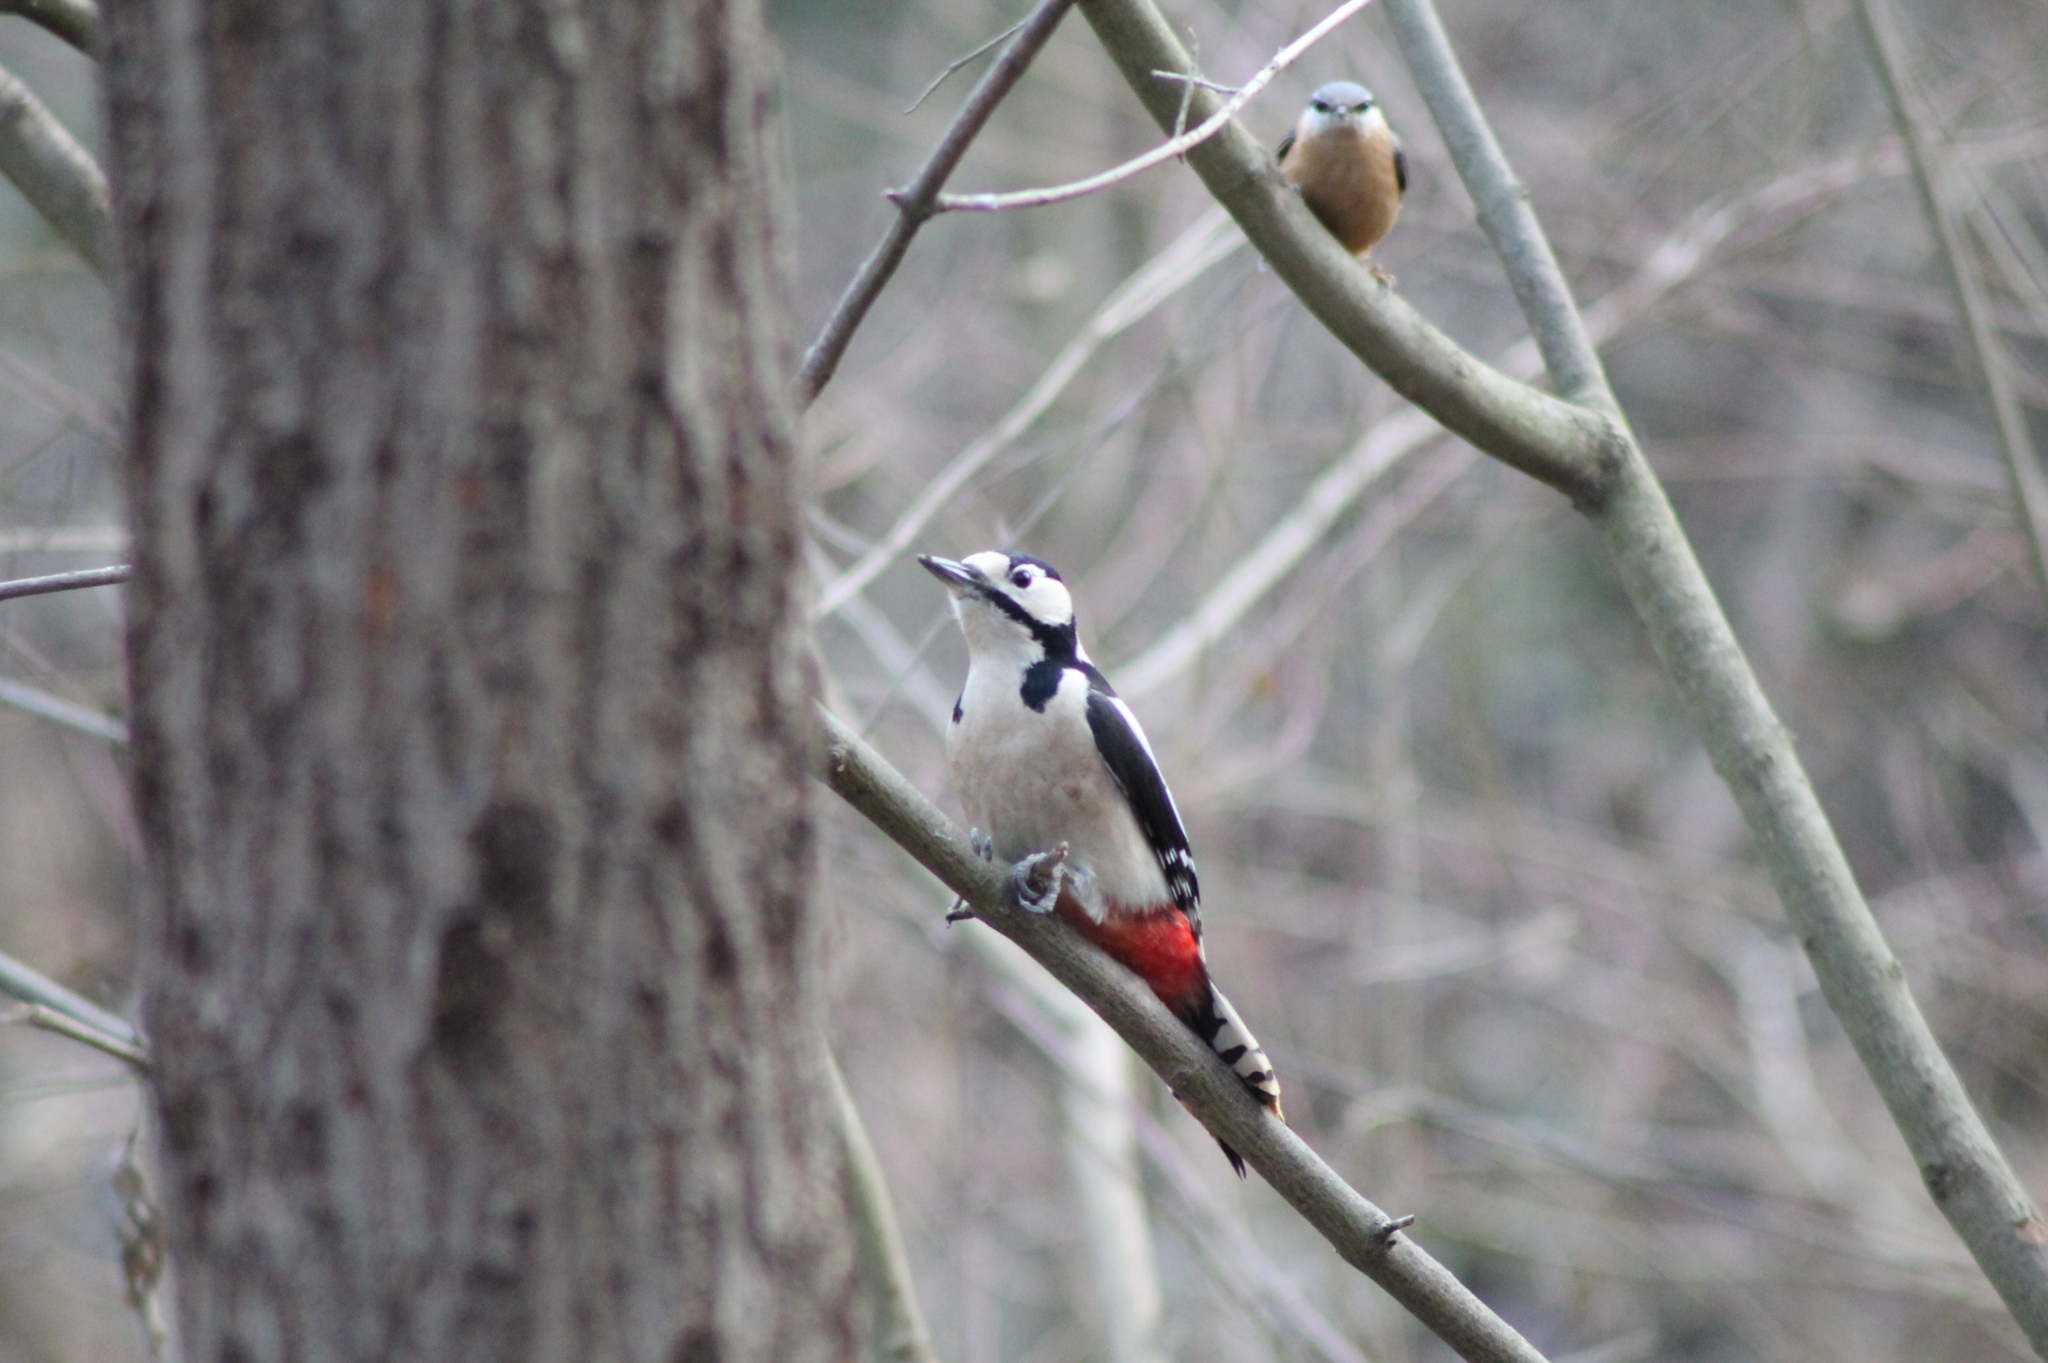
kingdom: Animalia
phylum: Chordata
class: Aves
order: Piciformes
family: Picidae
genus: Dendrocopos
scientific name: Dendrocopos major
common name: Great spotted woodpecker
